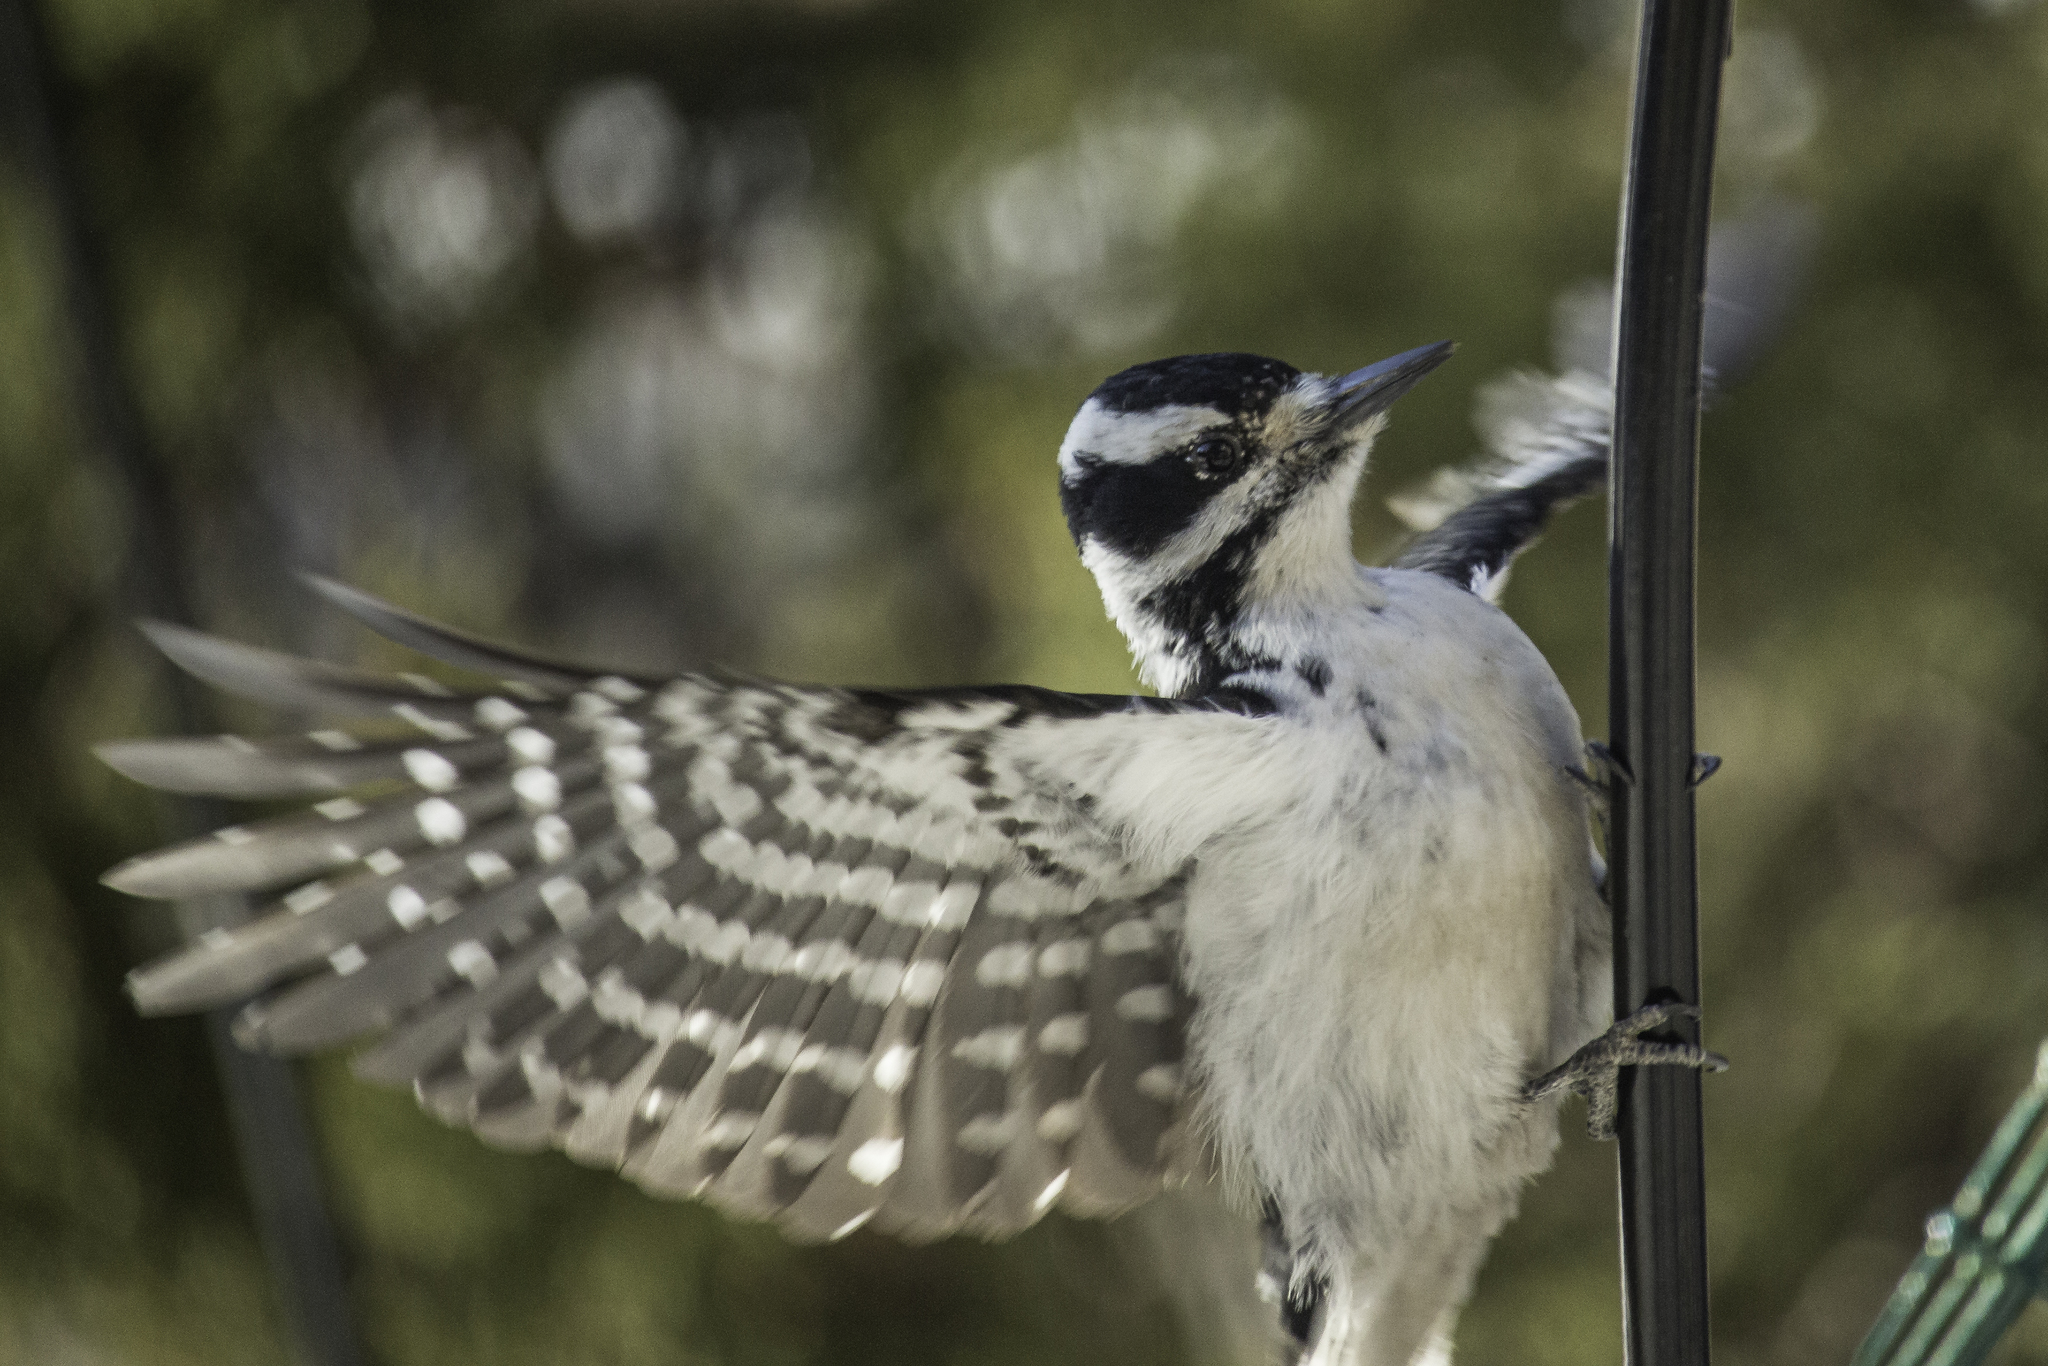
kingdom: Animalia
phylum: Chordata
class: Aves
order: Piciformes
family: Picidae
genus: Leuconotopicus
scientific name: Leuconotopicus villosus
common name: Hairy woodpecker
